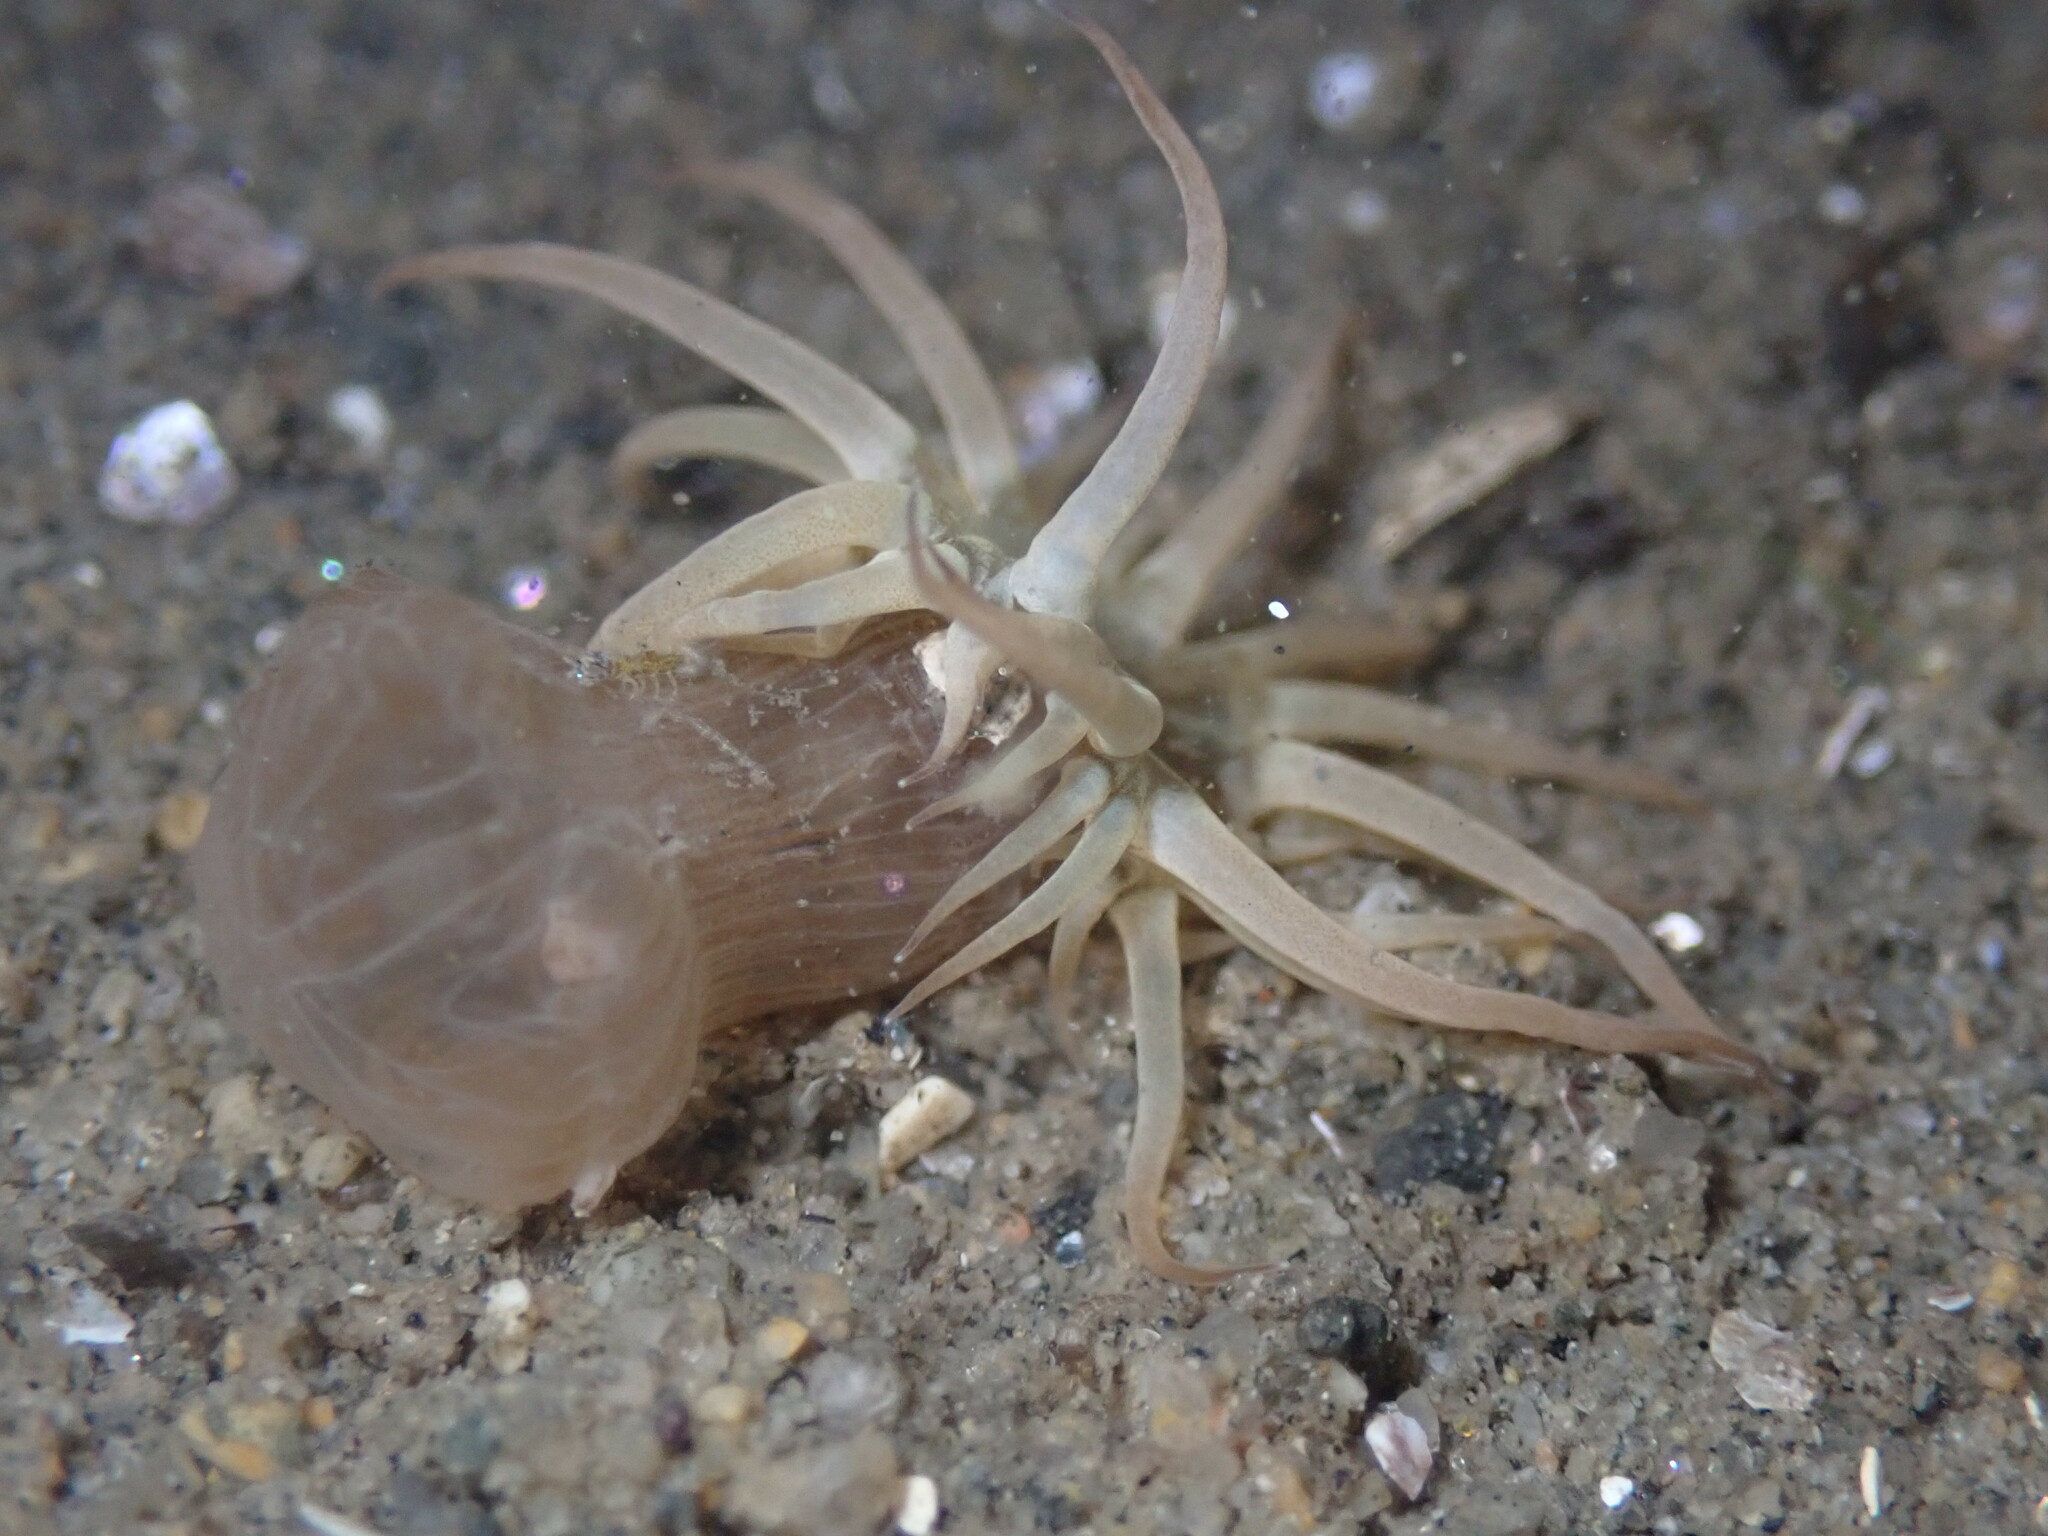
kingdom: Animalia
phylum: Cnidaria
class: Anthozoa
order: Actiniaria
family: Aiptasiidae
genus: Exaiptasia
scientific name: Exaiptasia diaphana
